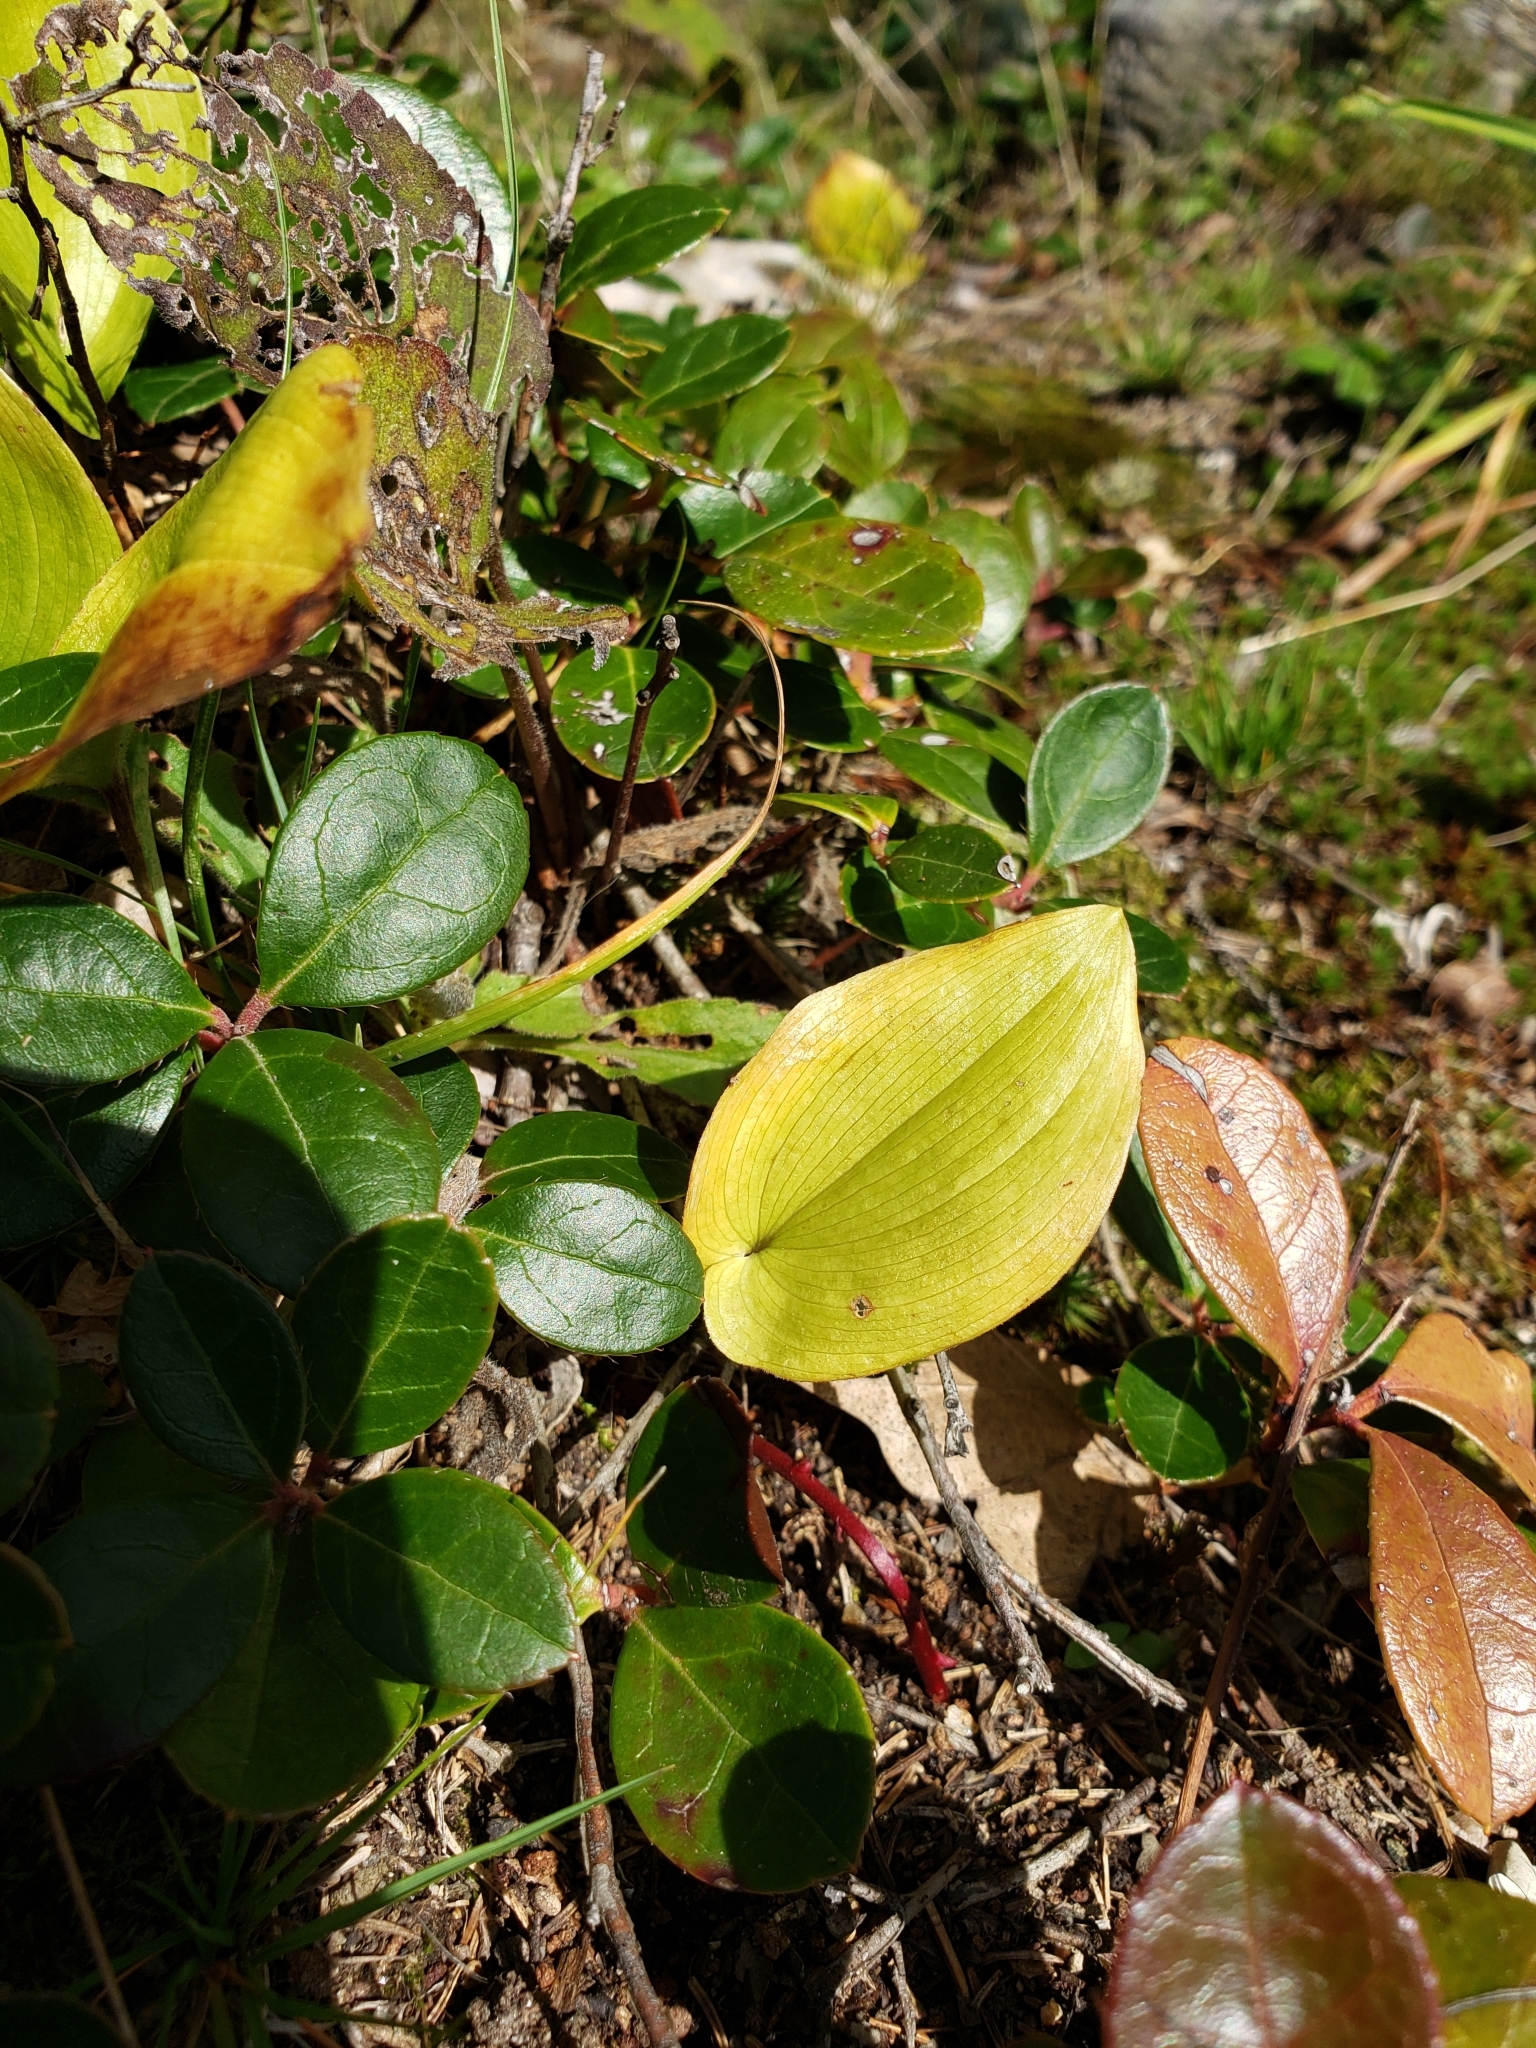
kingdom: Plantae
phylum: Tracheophyta
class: Liliopsida
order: Asparagales
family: Asparagaceae
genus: Maianthemum
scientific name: Maianthemum canadense
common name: False lily-of-the-valley
